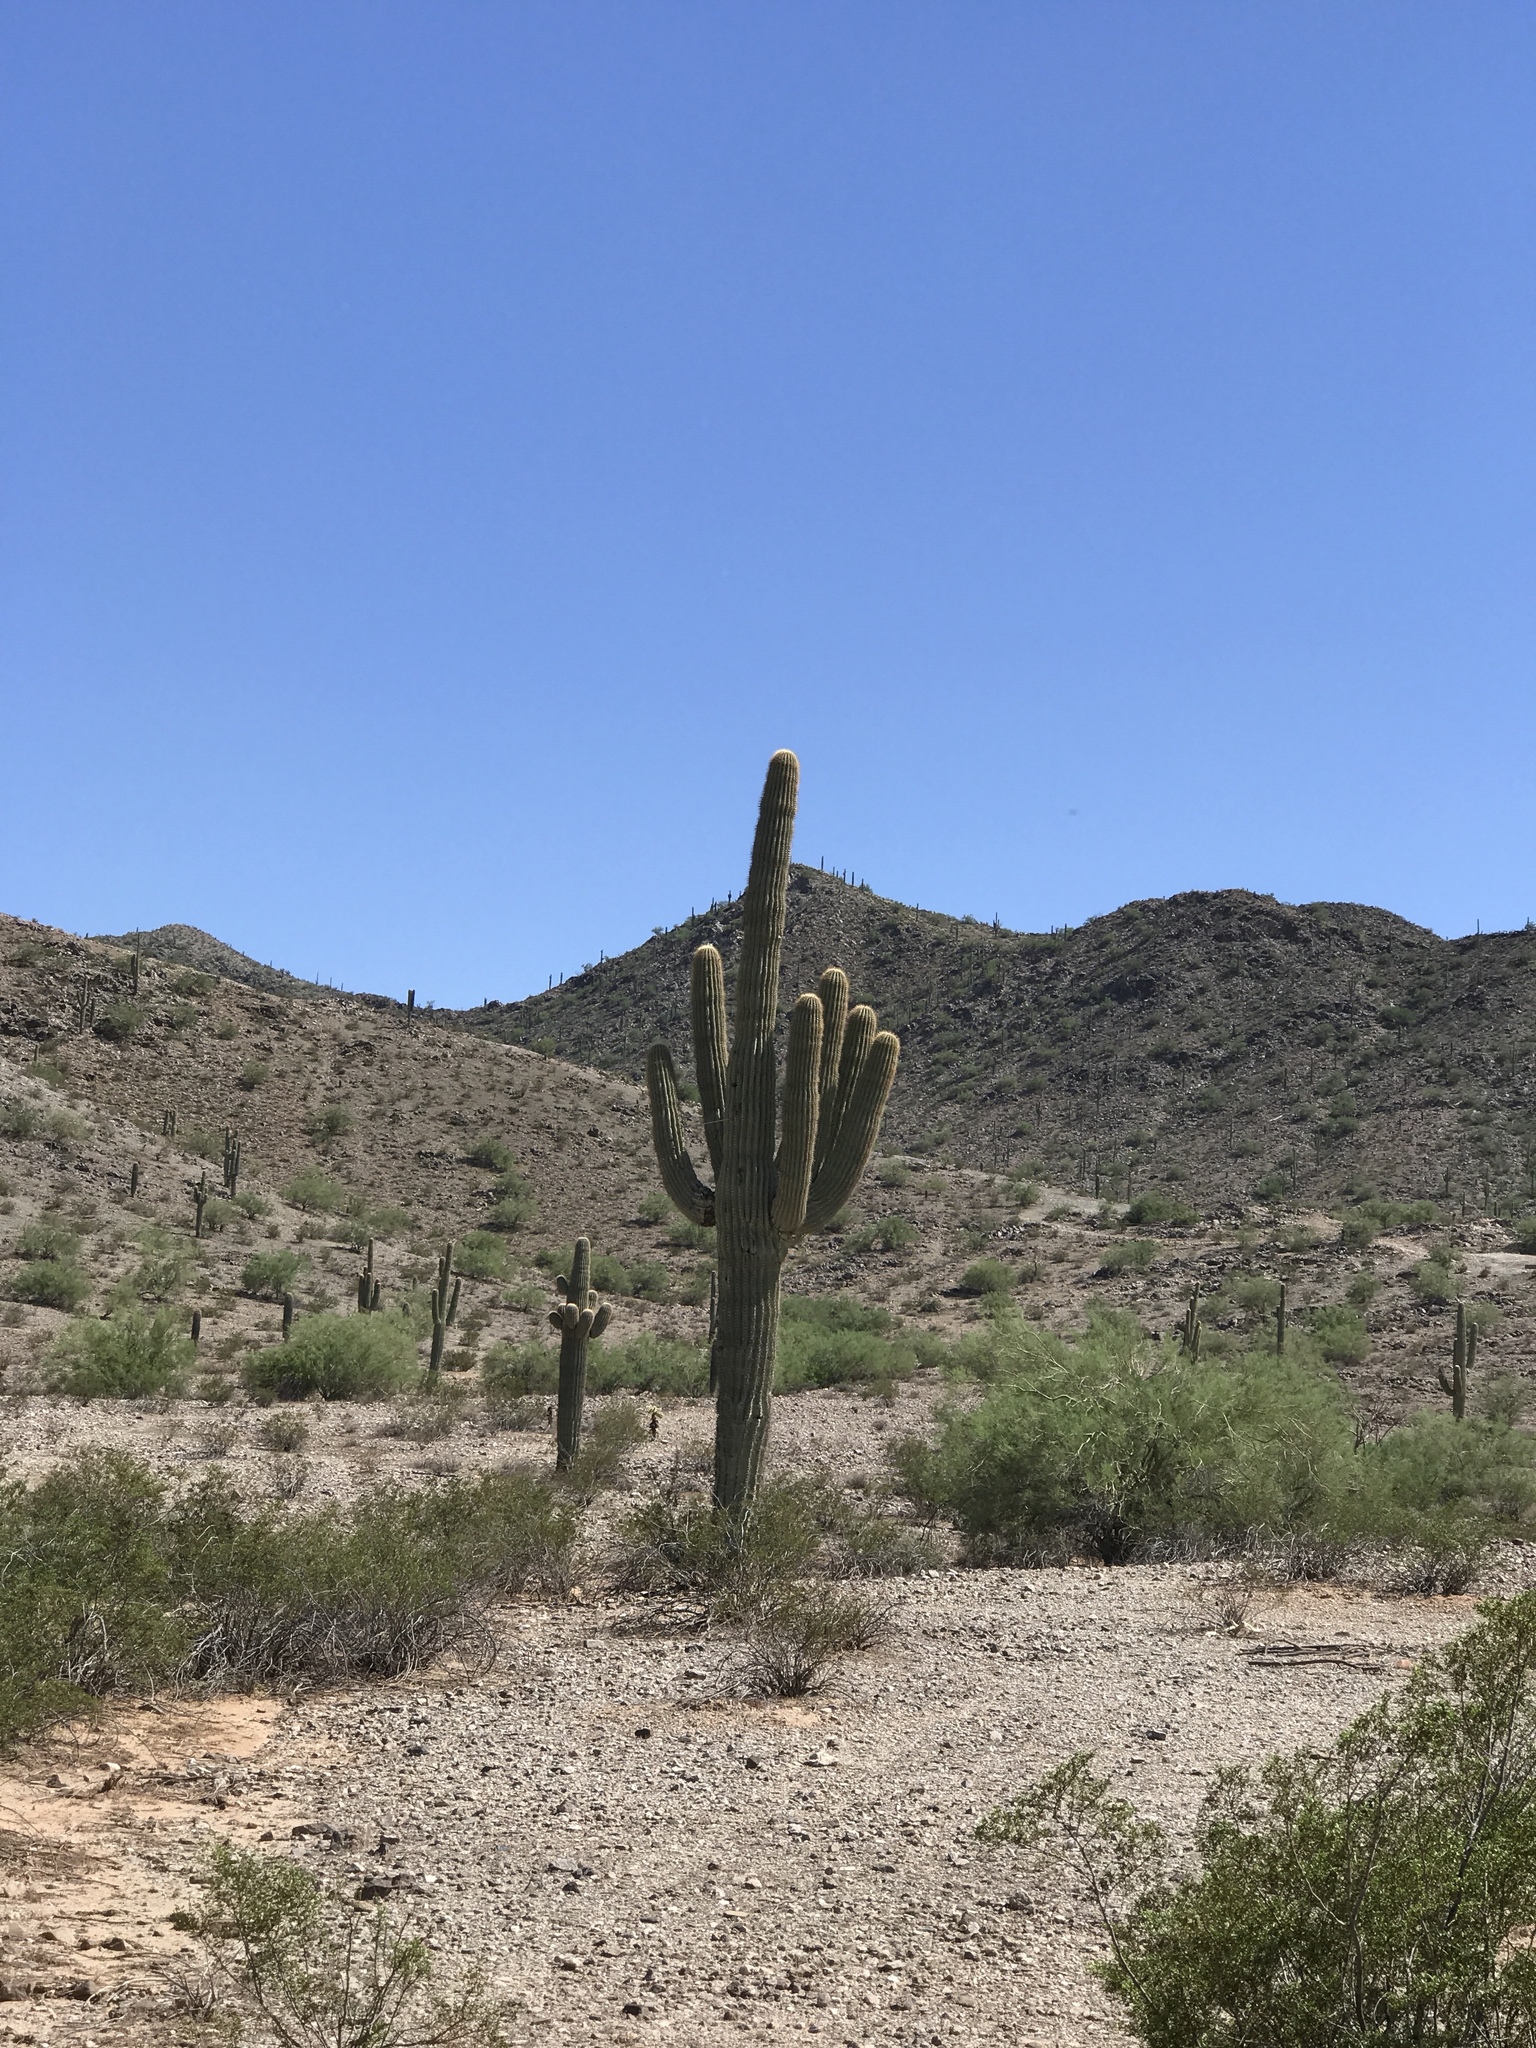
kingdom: Plantae
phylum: Tracheophyta
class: Magnoliopsida
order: Caryophyllales
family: Cactaceae
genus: Carnegiea
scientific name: Carnegiea gigantea
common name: Saguaro
